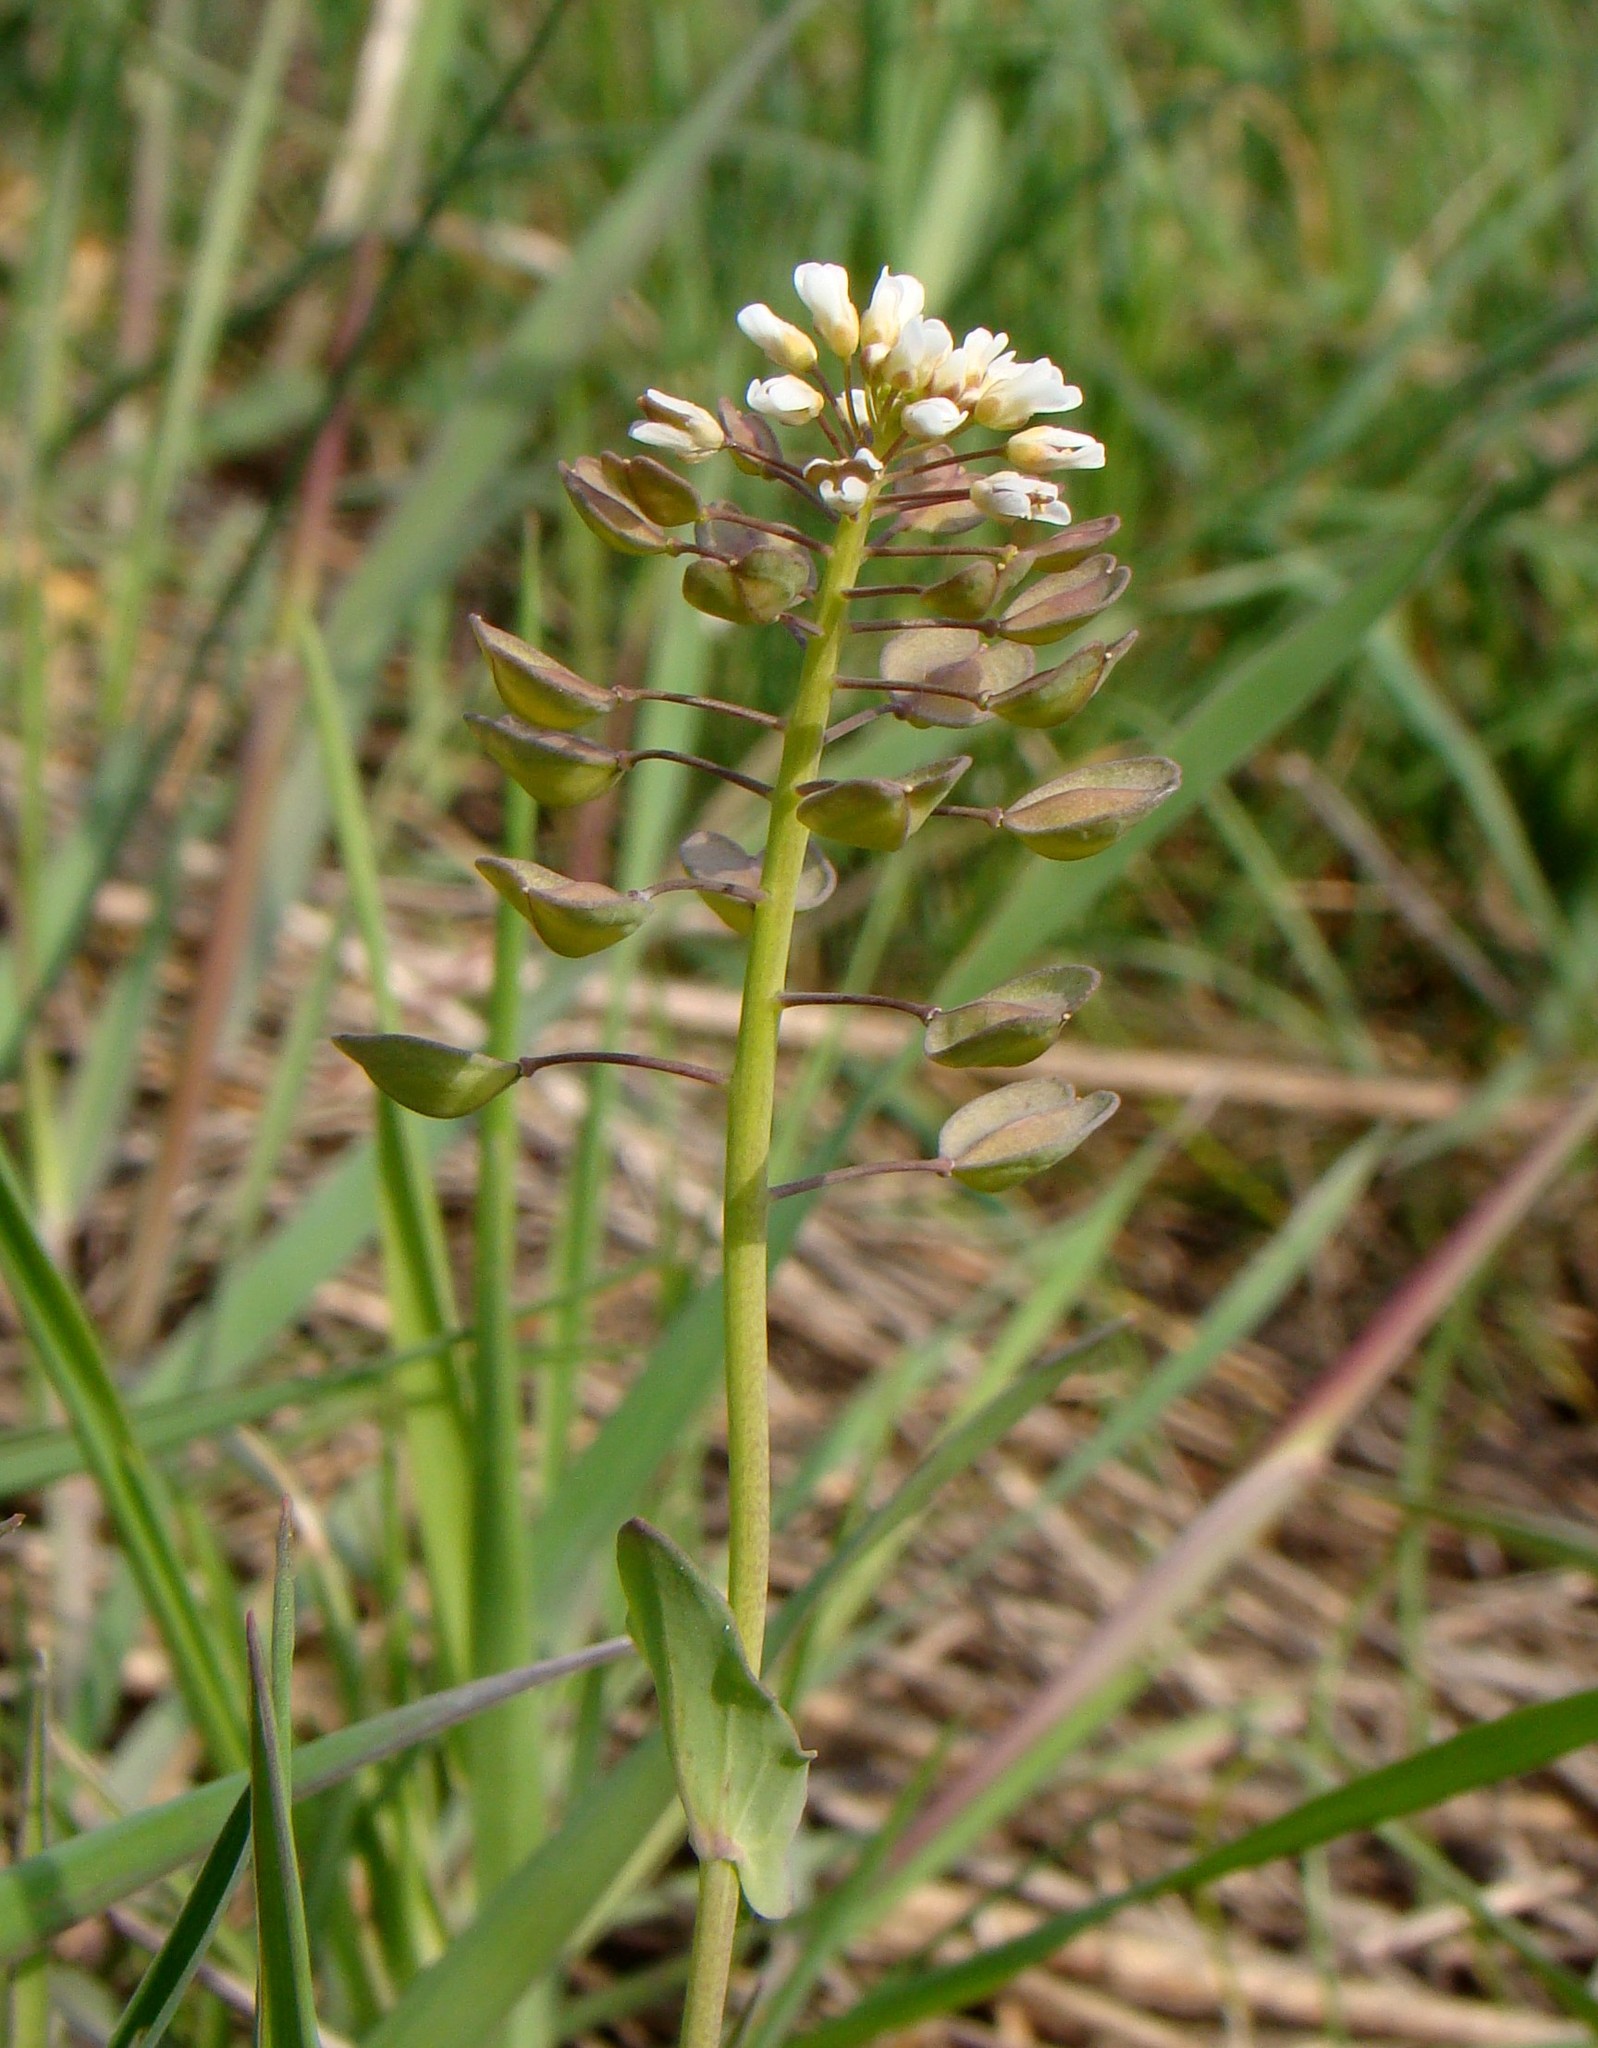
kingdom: Plantae
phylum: Tracheophyta
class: Magnoliopsida
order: Brassicales
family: Brassicaceae
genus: Noccaea
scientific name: Noccaea perfoliata
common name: Perfoliate pennycress
